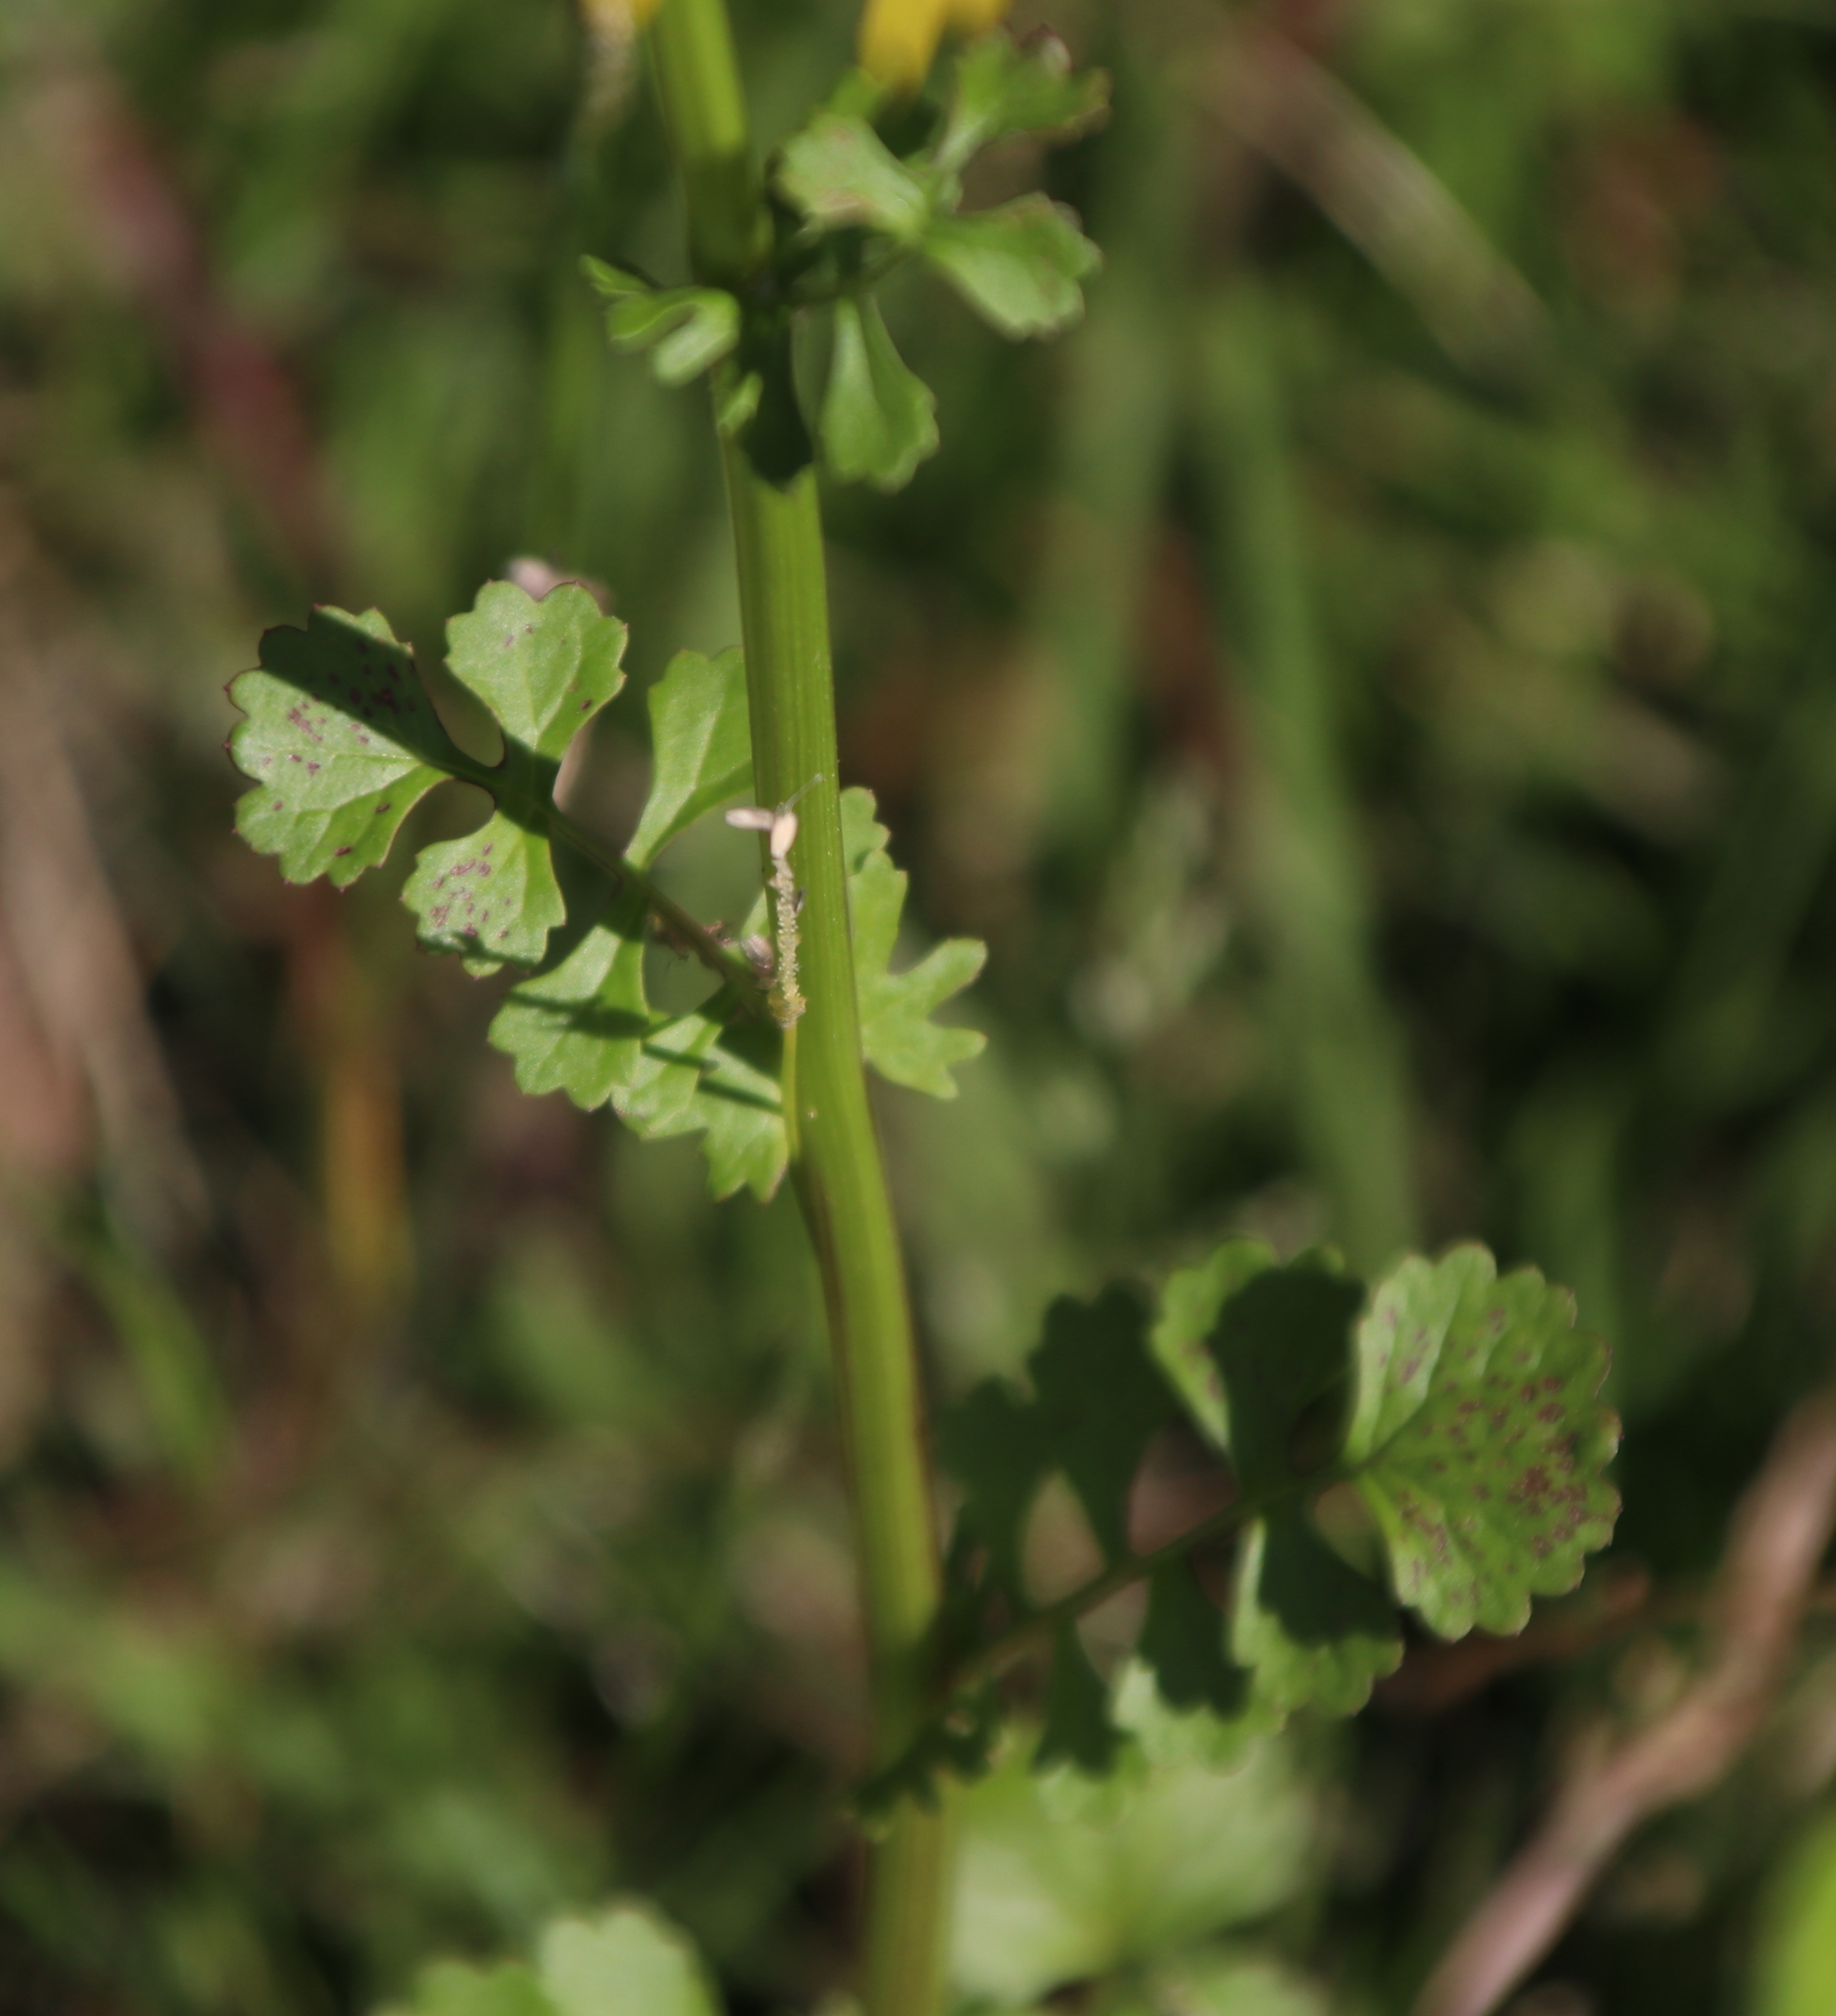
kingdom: Plantae
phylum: Tracheophyta
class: Magnoliopsida
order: Asterales
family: Asteraceae
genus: Packera
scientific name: Packera glabella
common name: Butterweed
